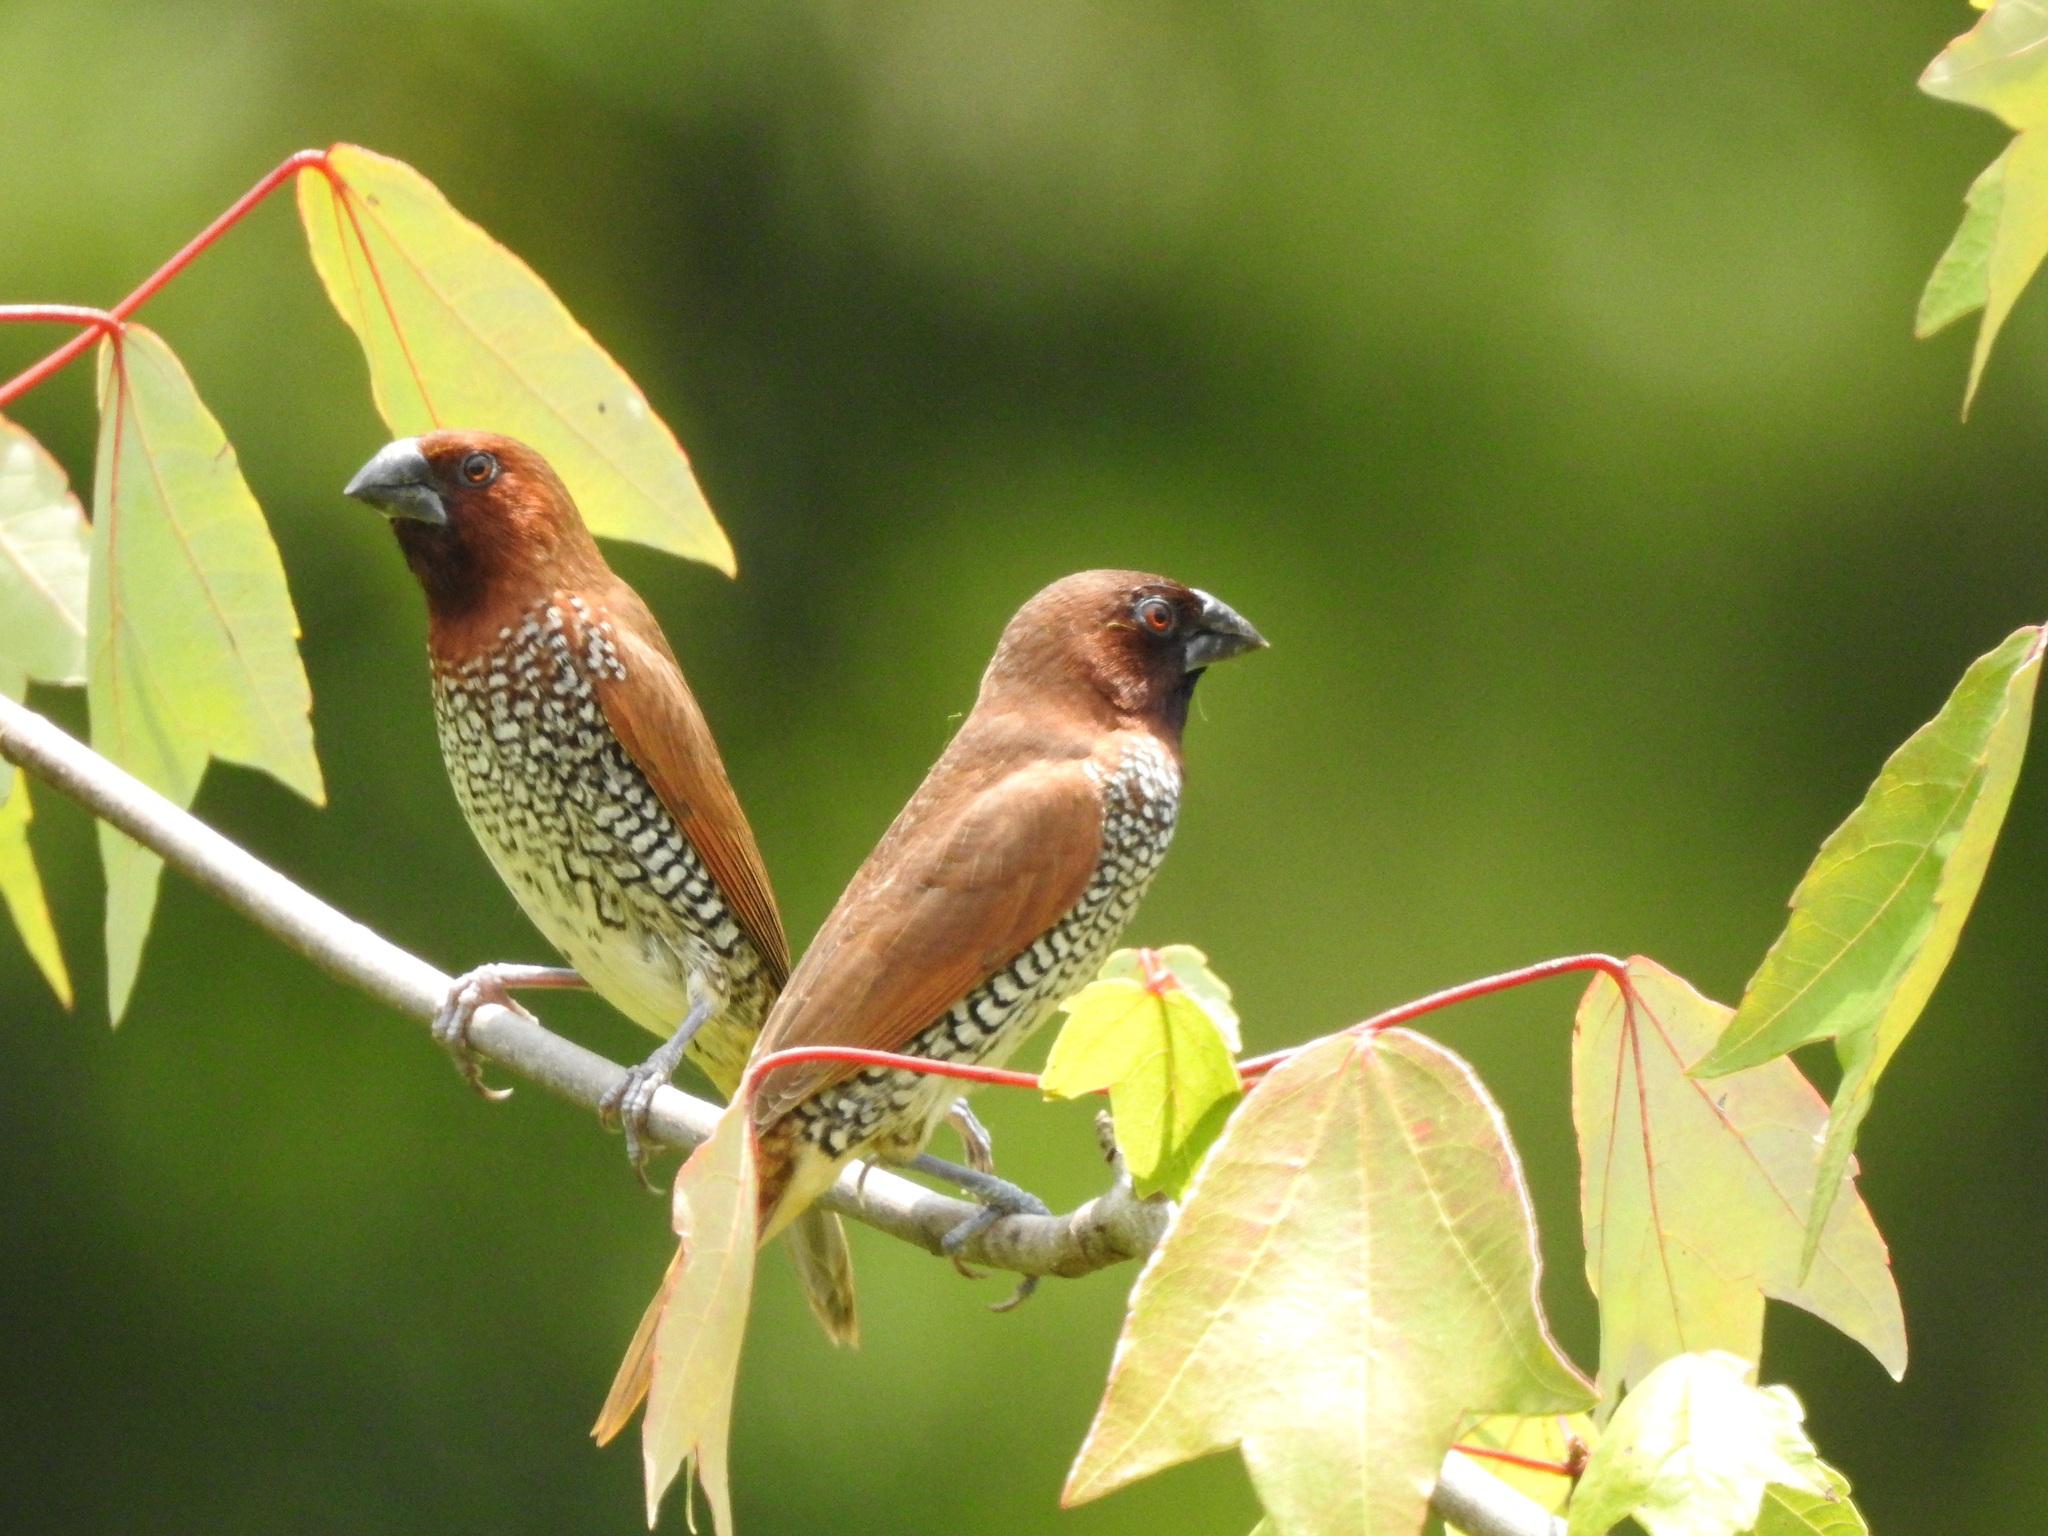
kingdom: Animalia
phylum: Chordata
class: Aves
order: Passeriformes
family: Estrildidae
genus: Lonchura
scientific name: Lonchura punctulata
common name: Scaly-breasted munia
